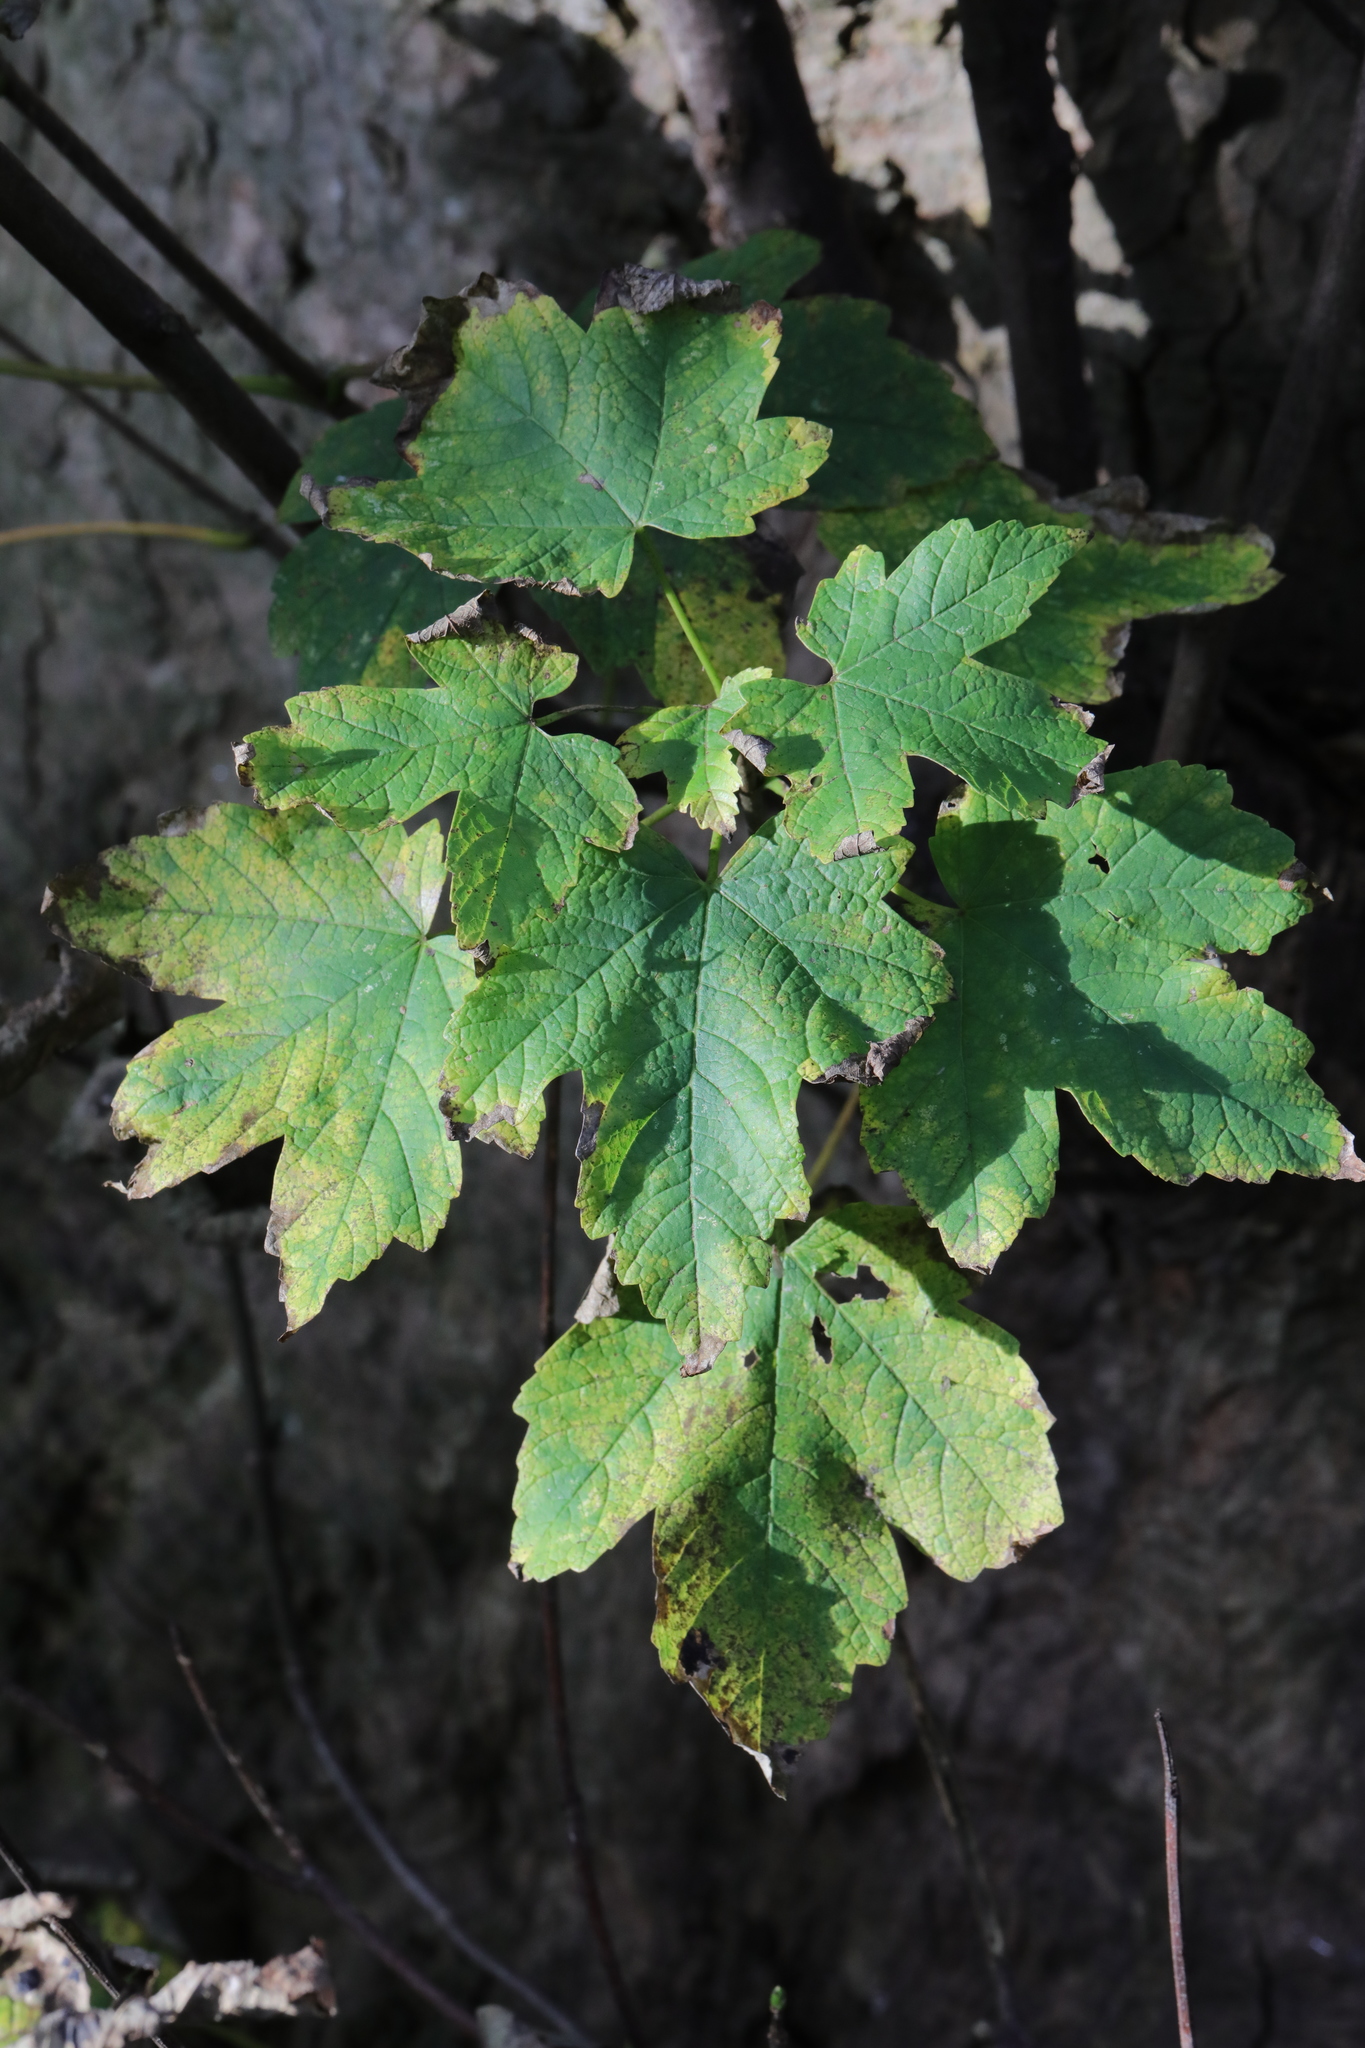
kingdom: Plantae
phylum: Tracheophyta
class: Magnoliopsida
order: Sapindales
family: Sapindaceae
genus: Acer
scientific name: Acer pseudoplatanus
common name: Sycamore
